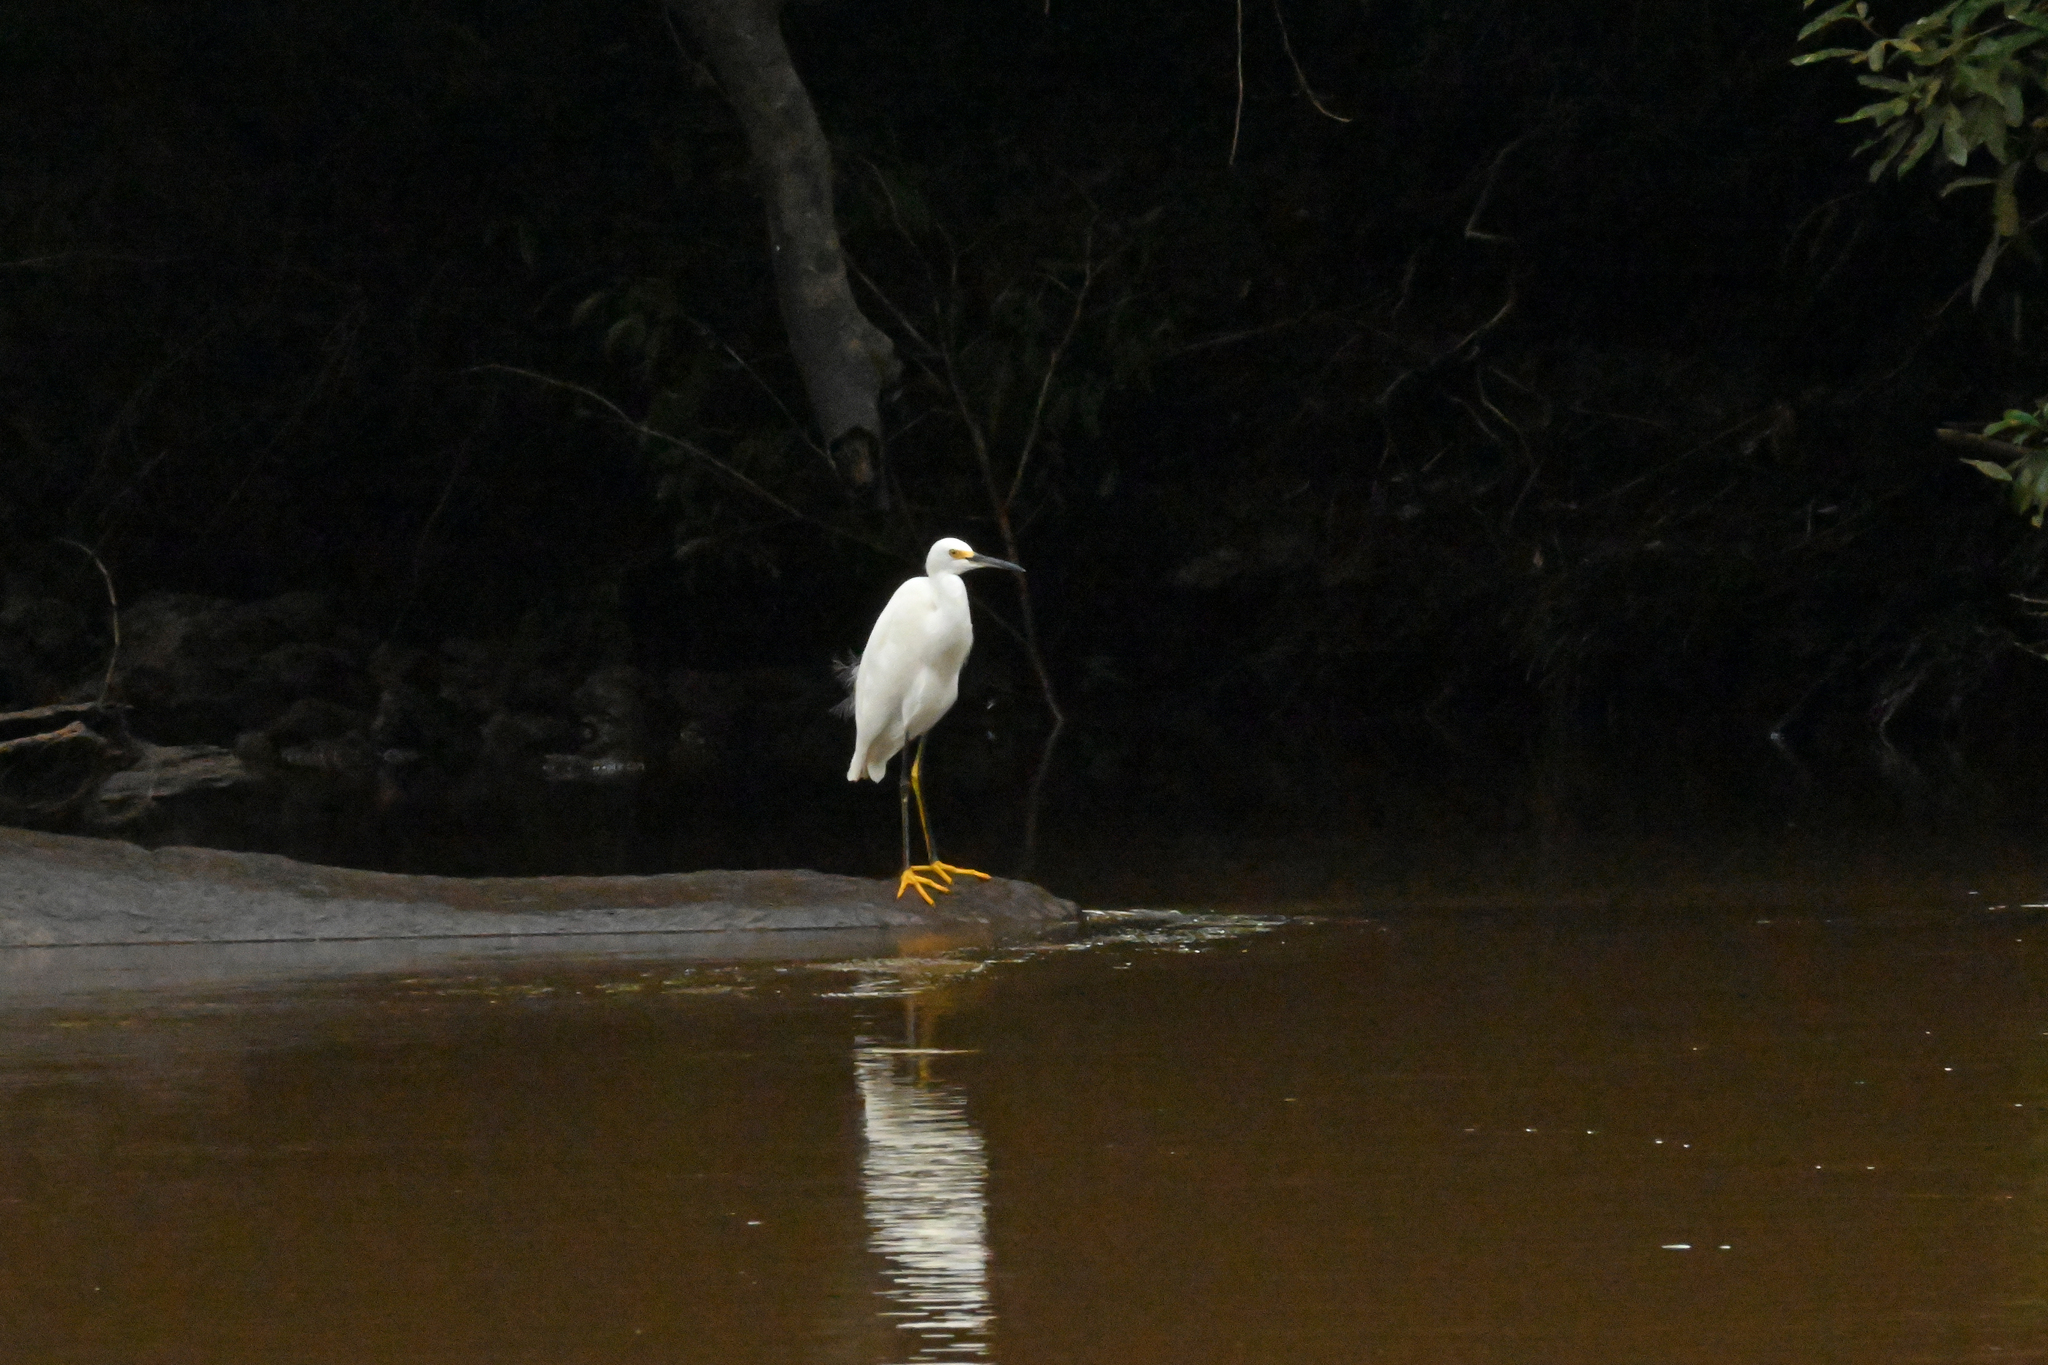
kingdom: Animalia
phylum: Chordata
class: Aves
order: Pelecaniformes
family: Ardeidae
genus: Egretta
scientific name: Egretta thula
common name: Snowy egret
